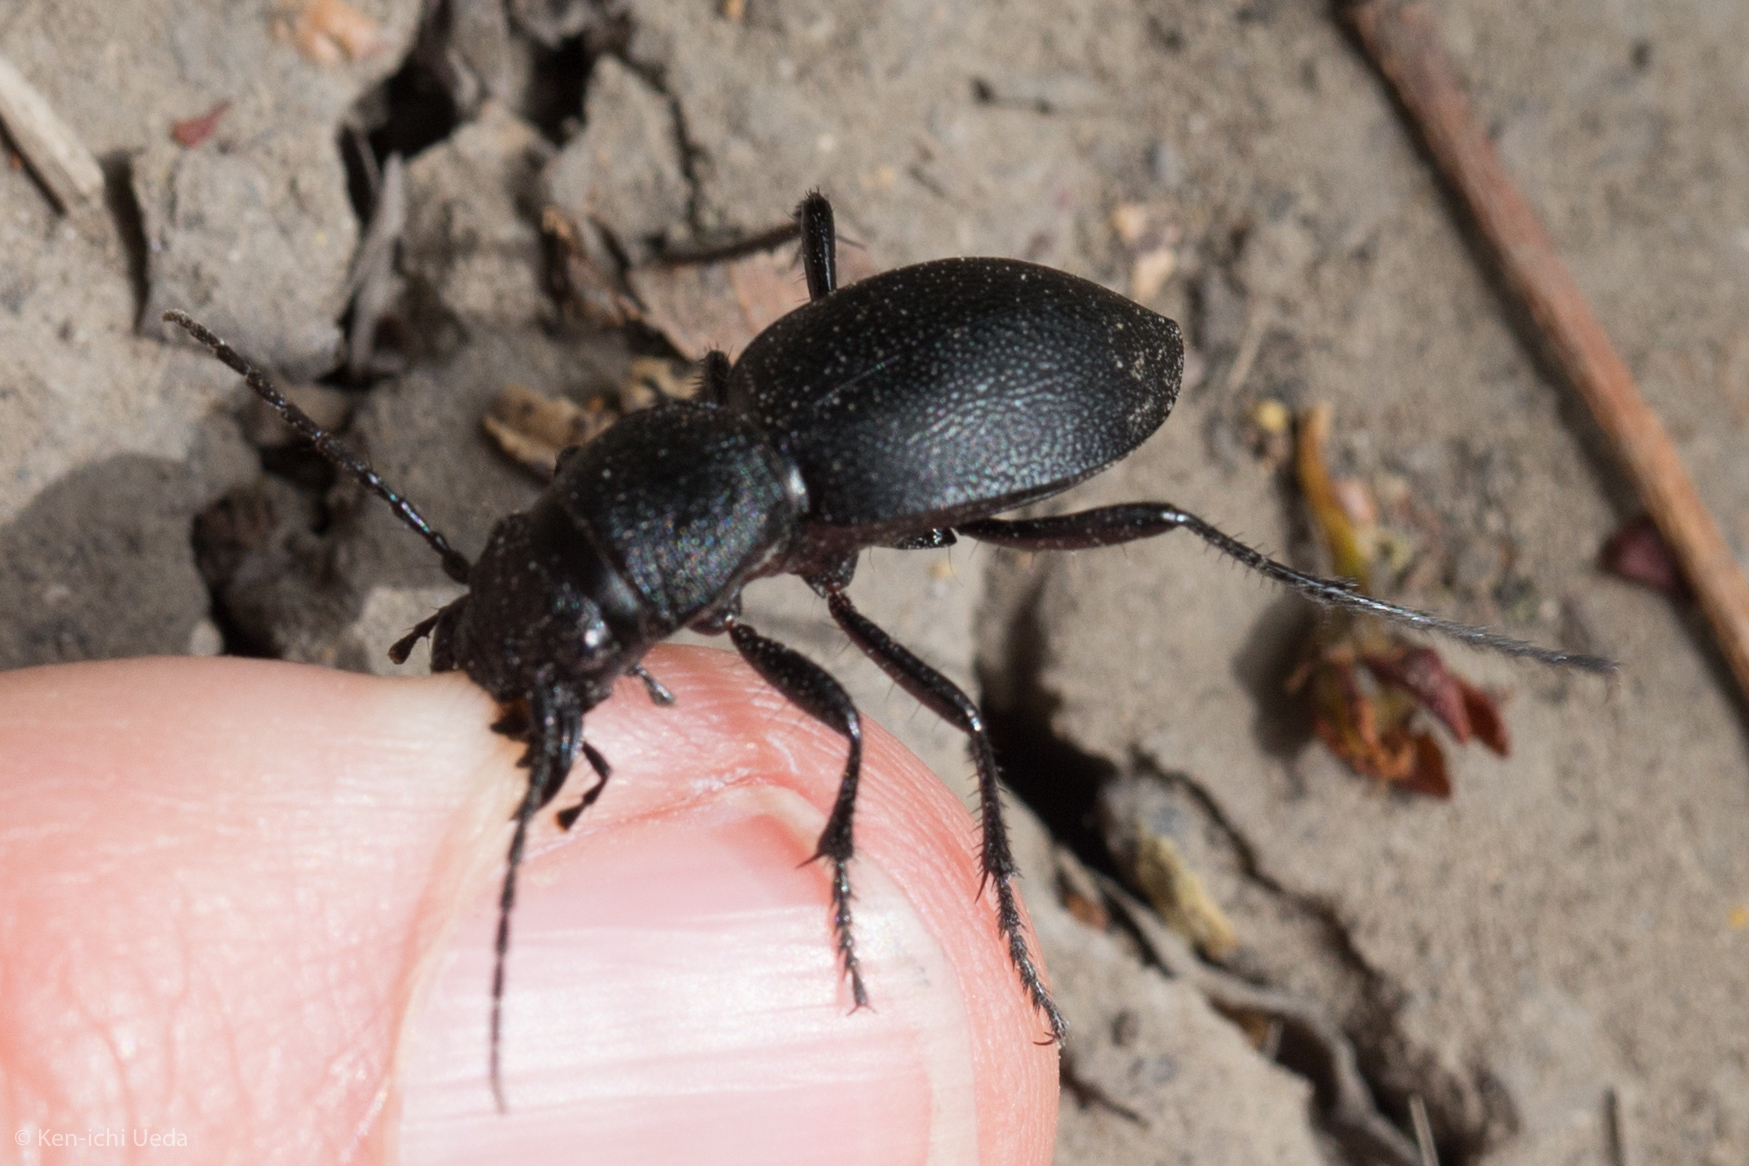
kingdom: Animalia
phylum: Arthropoda
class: Insecta
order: Coleoptera
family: Carabidae
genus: Omus
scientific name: Omus californicus
